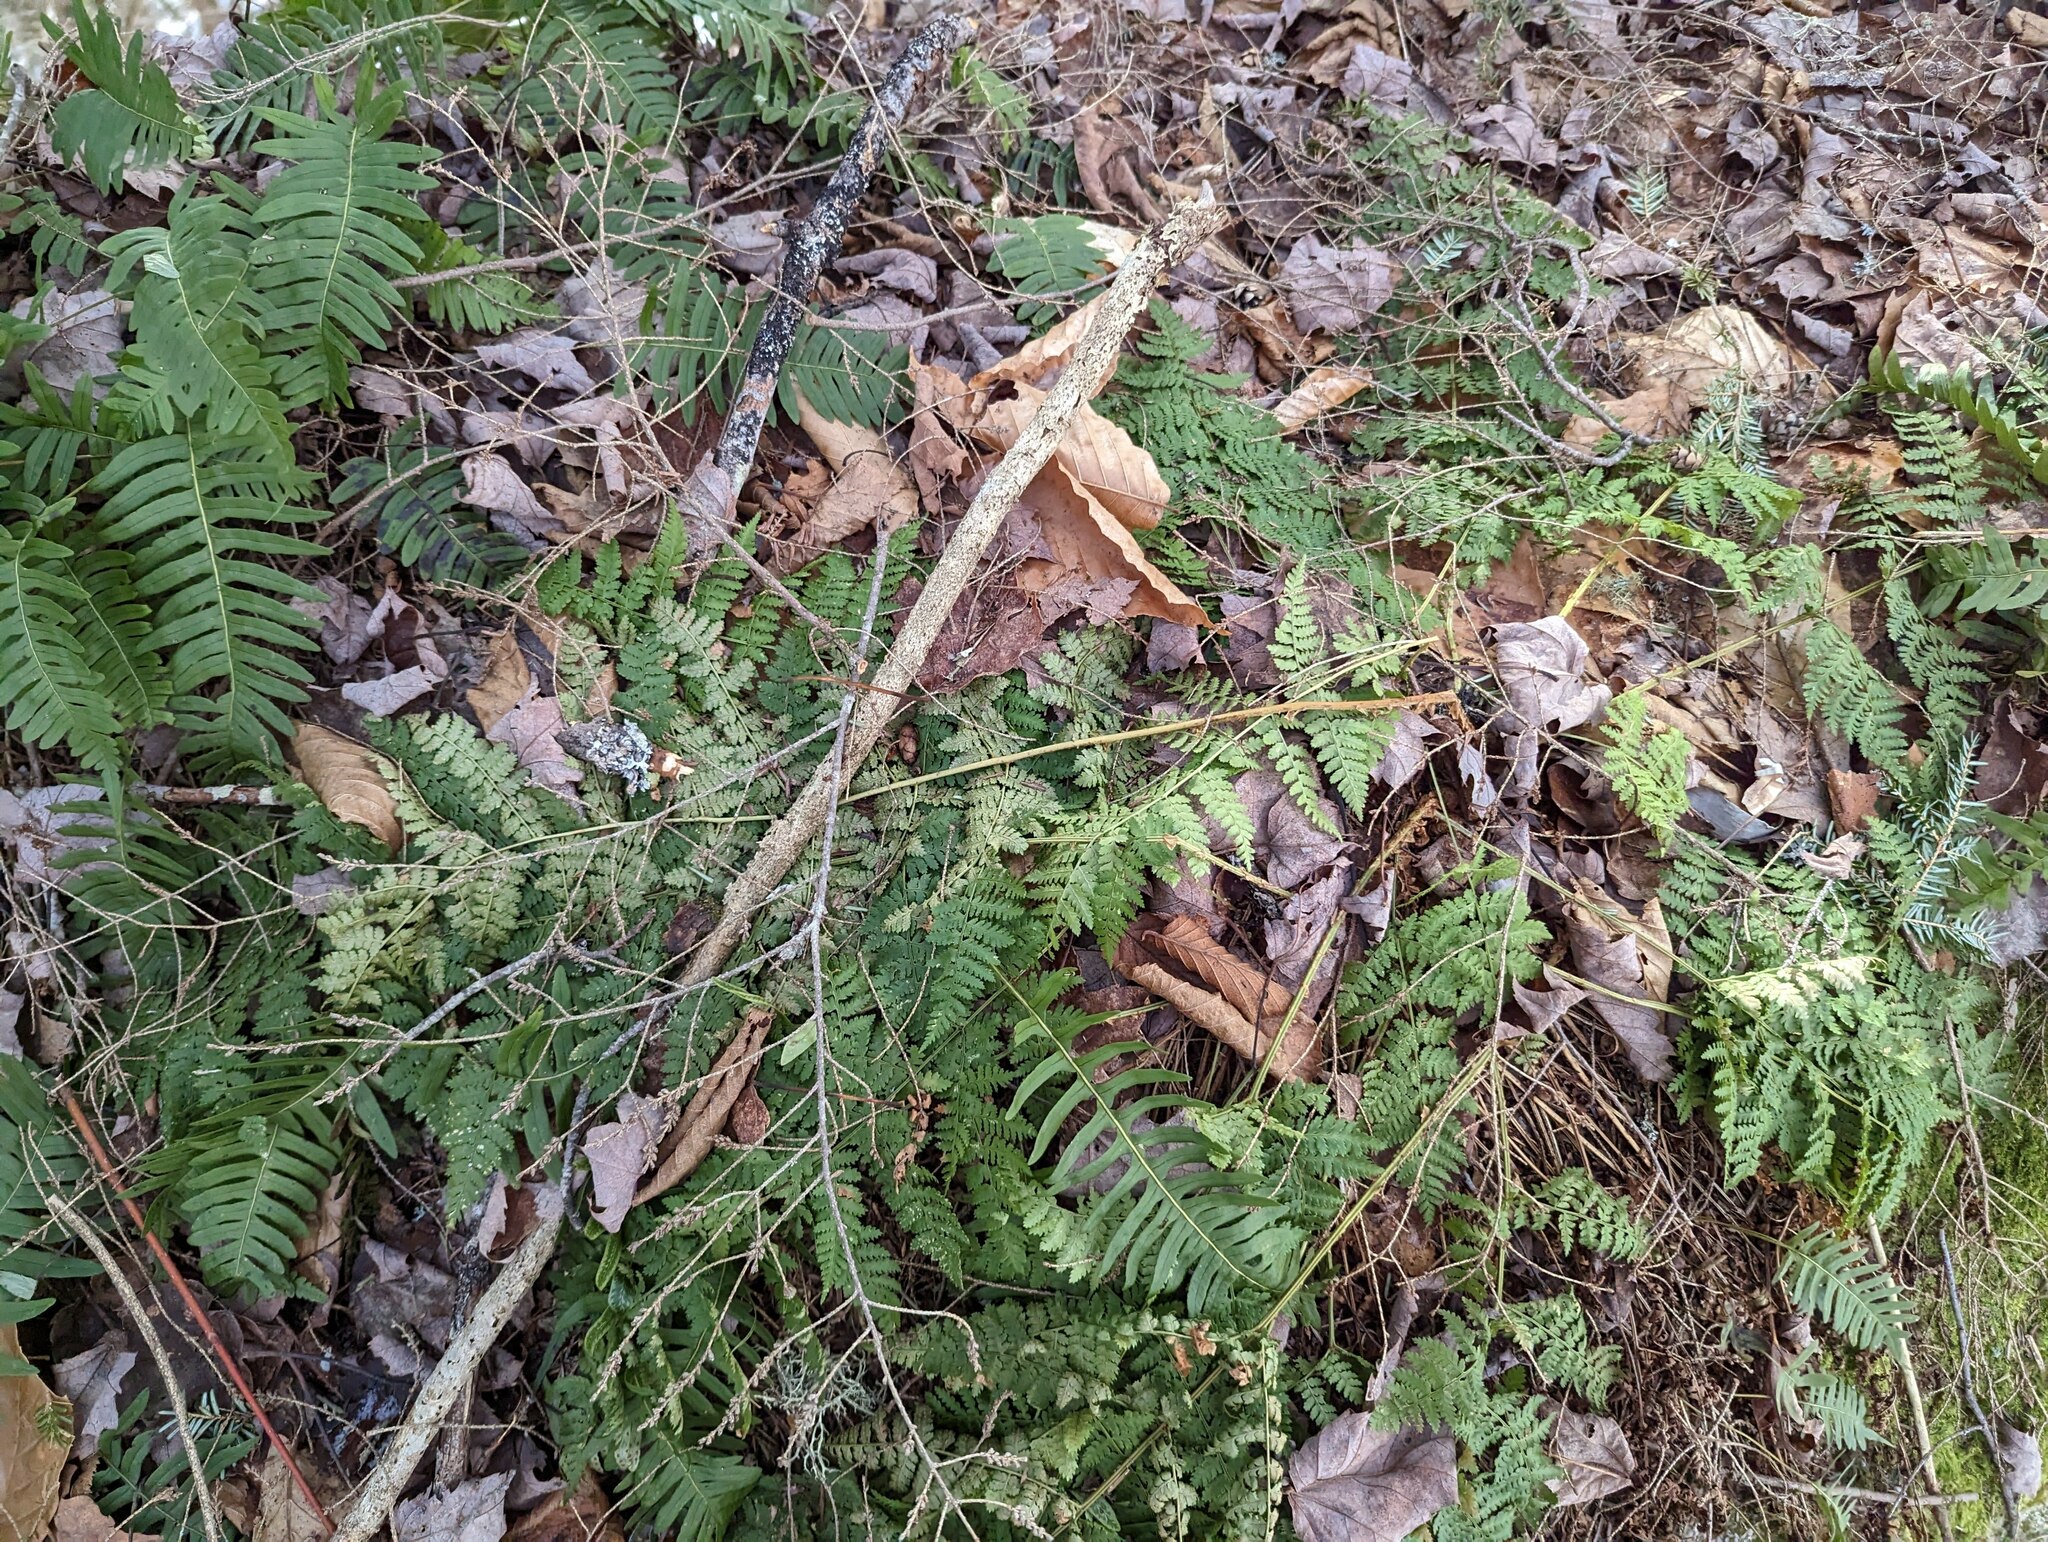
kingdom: Plantae
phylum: Tracheophyta
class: Polypodiopsida
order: Polypodiales
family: Dryopteridaceae
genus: Dryopteris
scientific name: Dryopteris intermedia
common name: Evergreen wood fern
